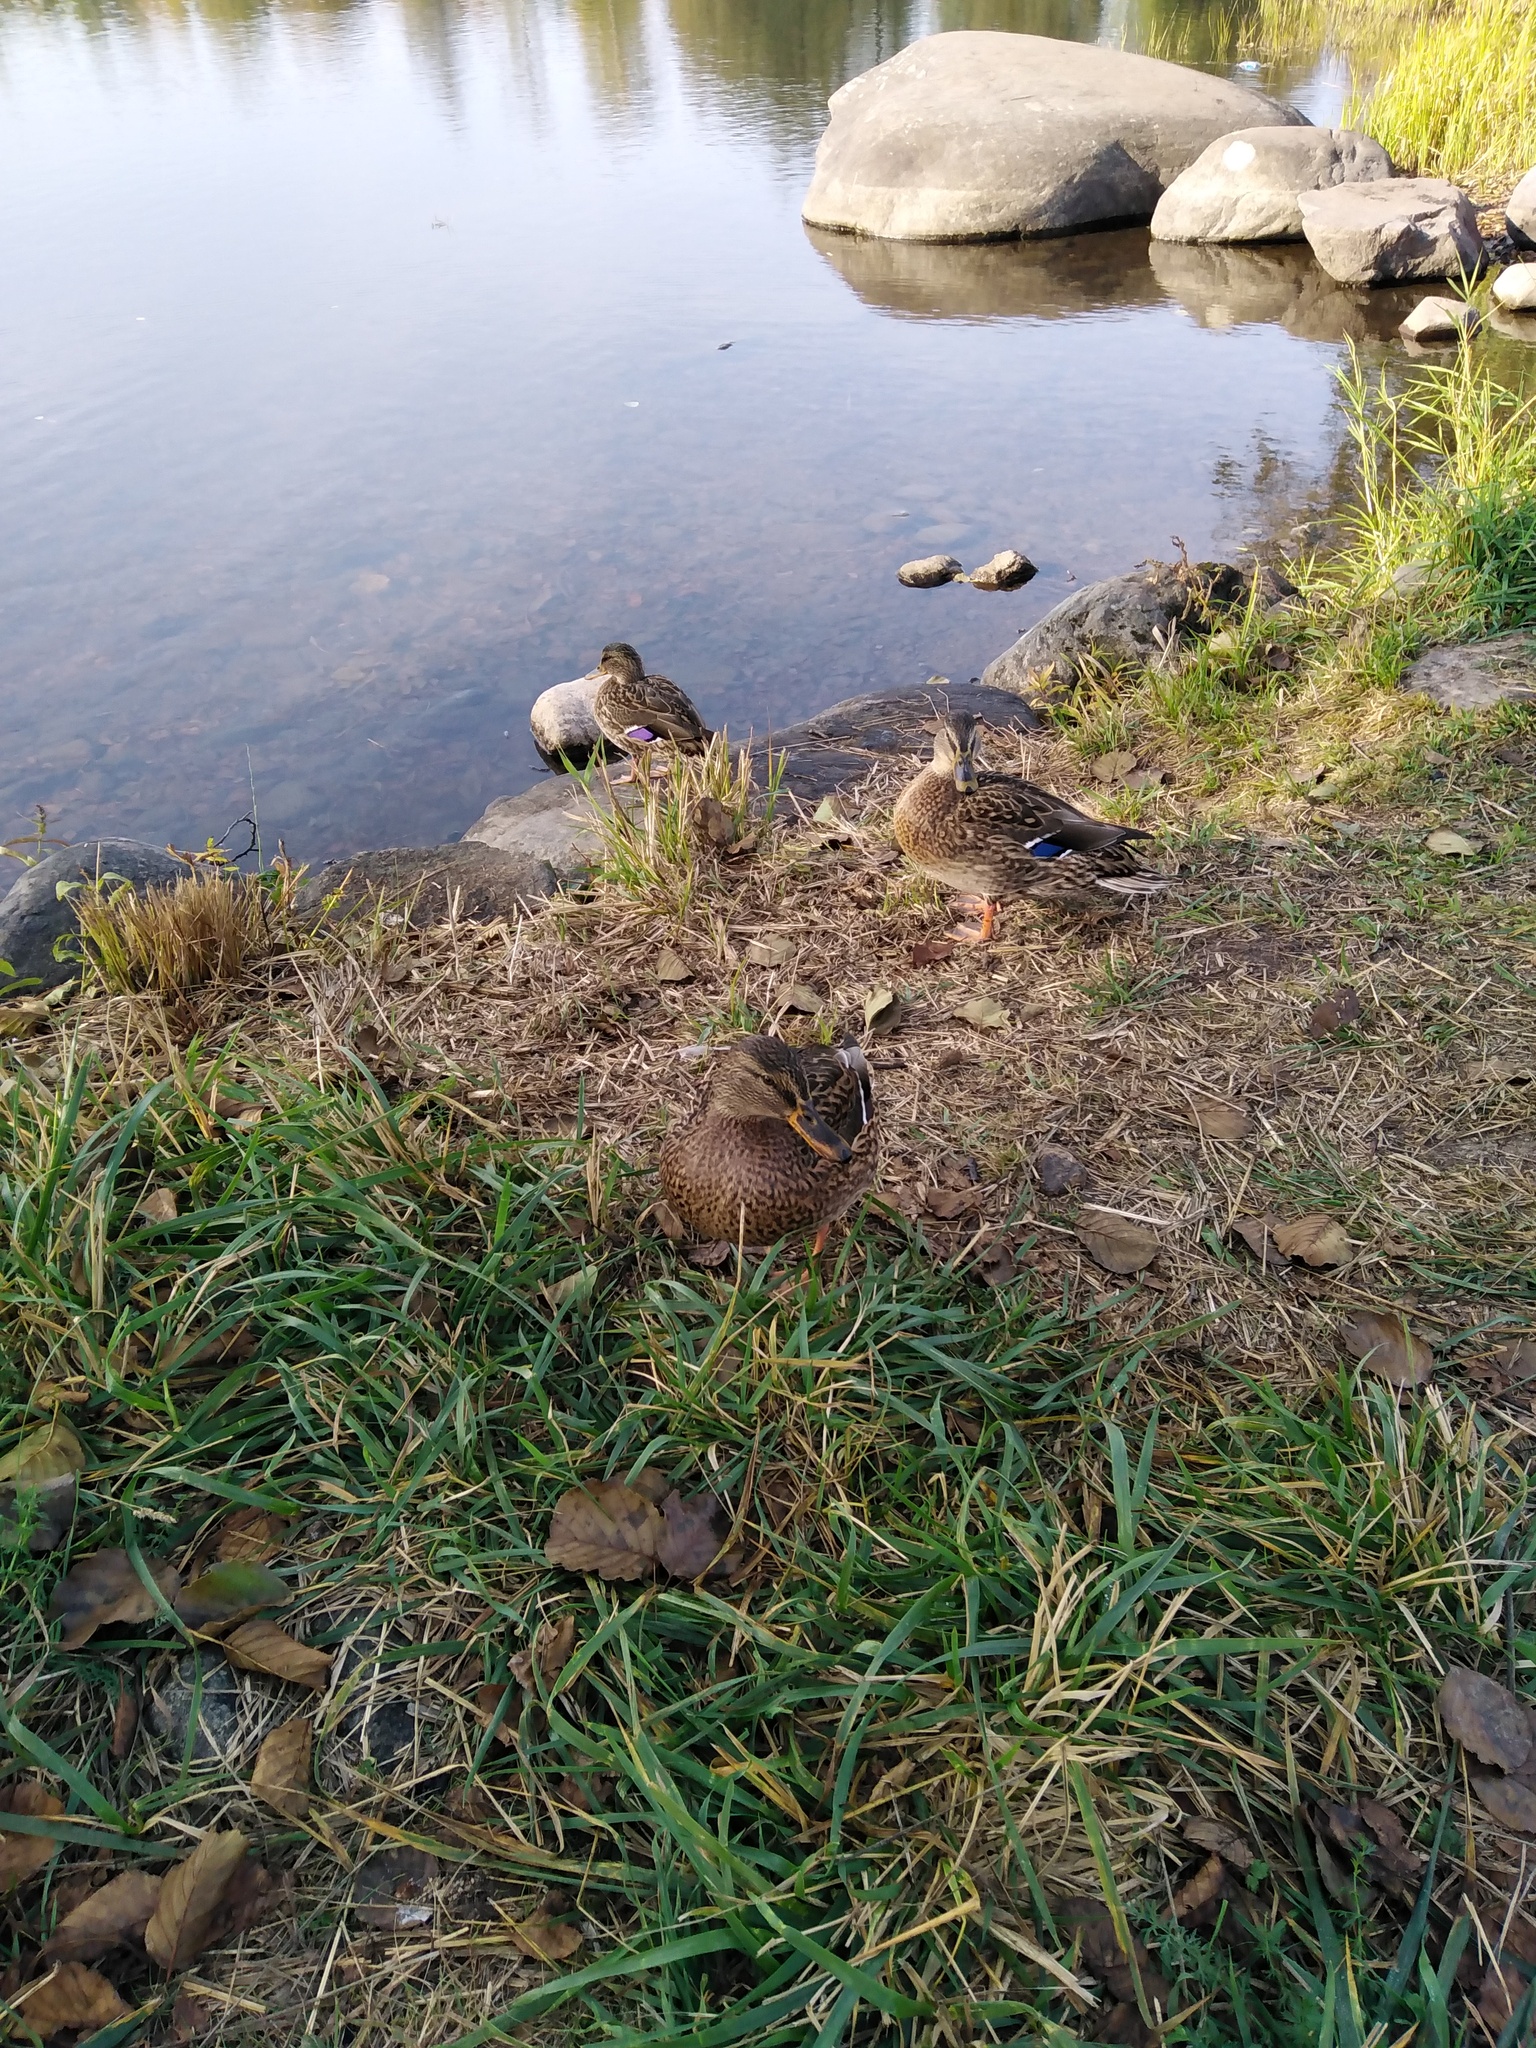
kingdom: Animalia
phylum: Chordata
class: Aves
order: Anseriformes
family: Anatidae
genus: Anas
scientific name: Anas platyrhynchos
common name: Mallard
